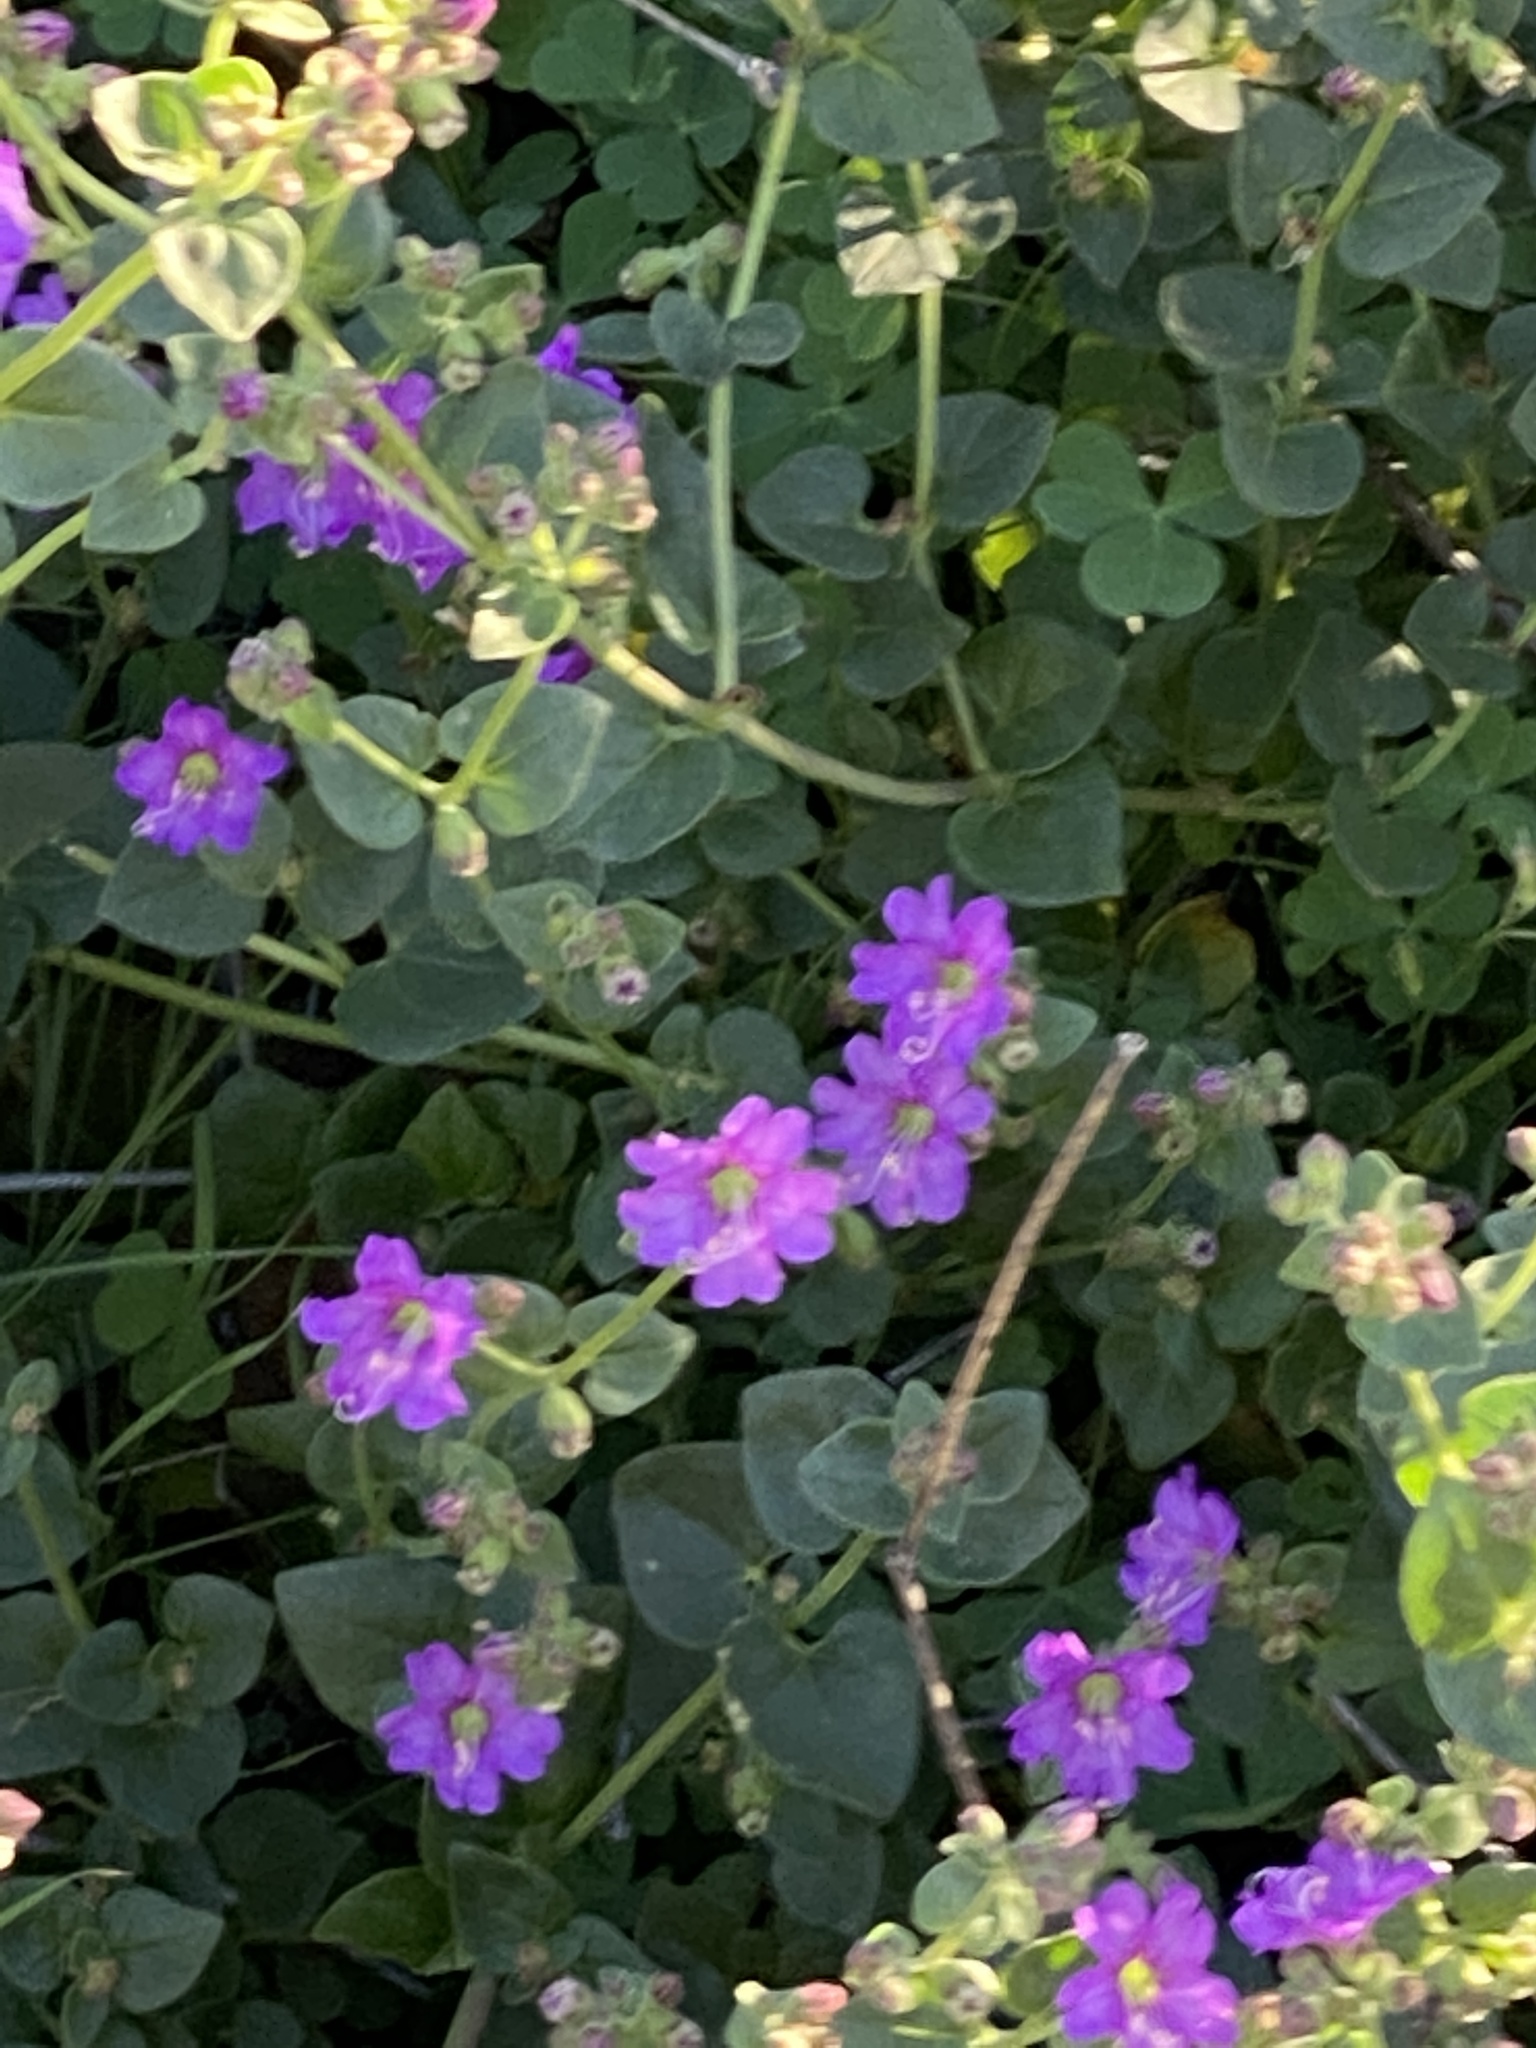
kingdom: Plantae
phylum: Tracheophyta
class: Magnoliopsida
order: Caryophyllales
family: Nyctaginaceae
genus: Mirabilis
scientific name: Mirabilis laevis
